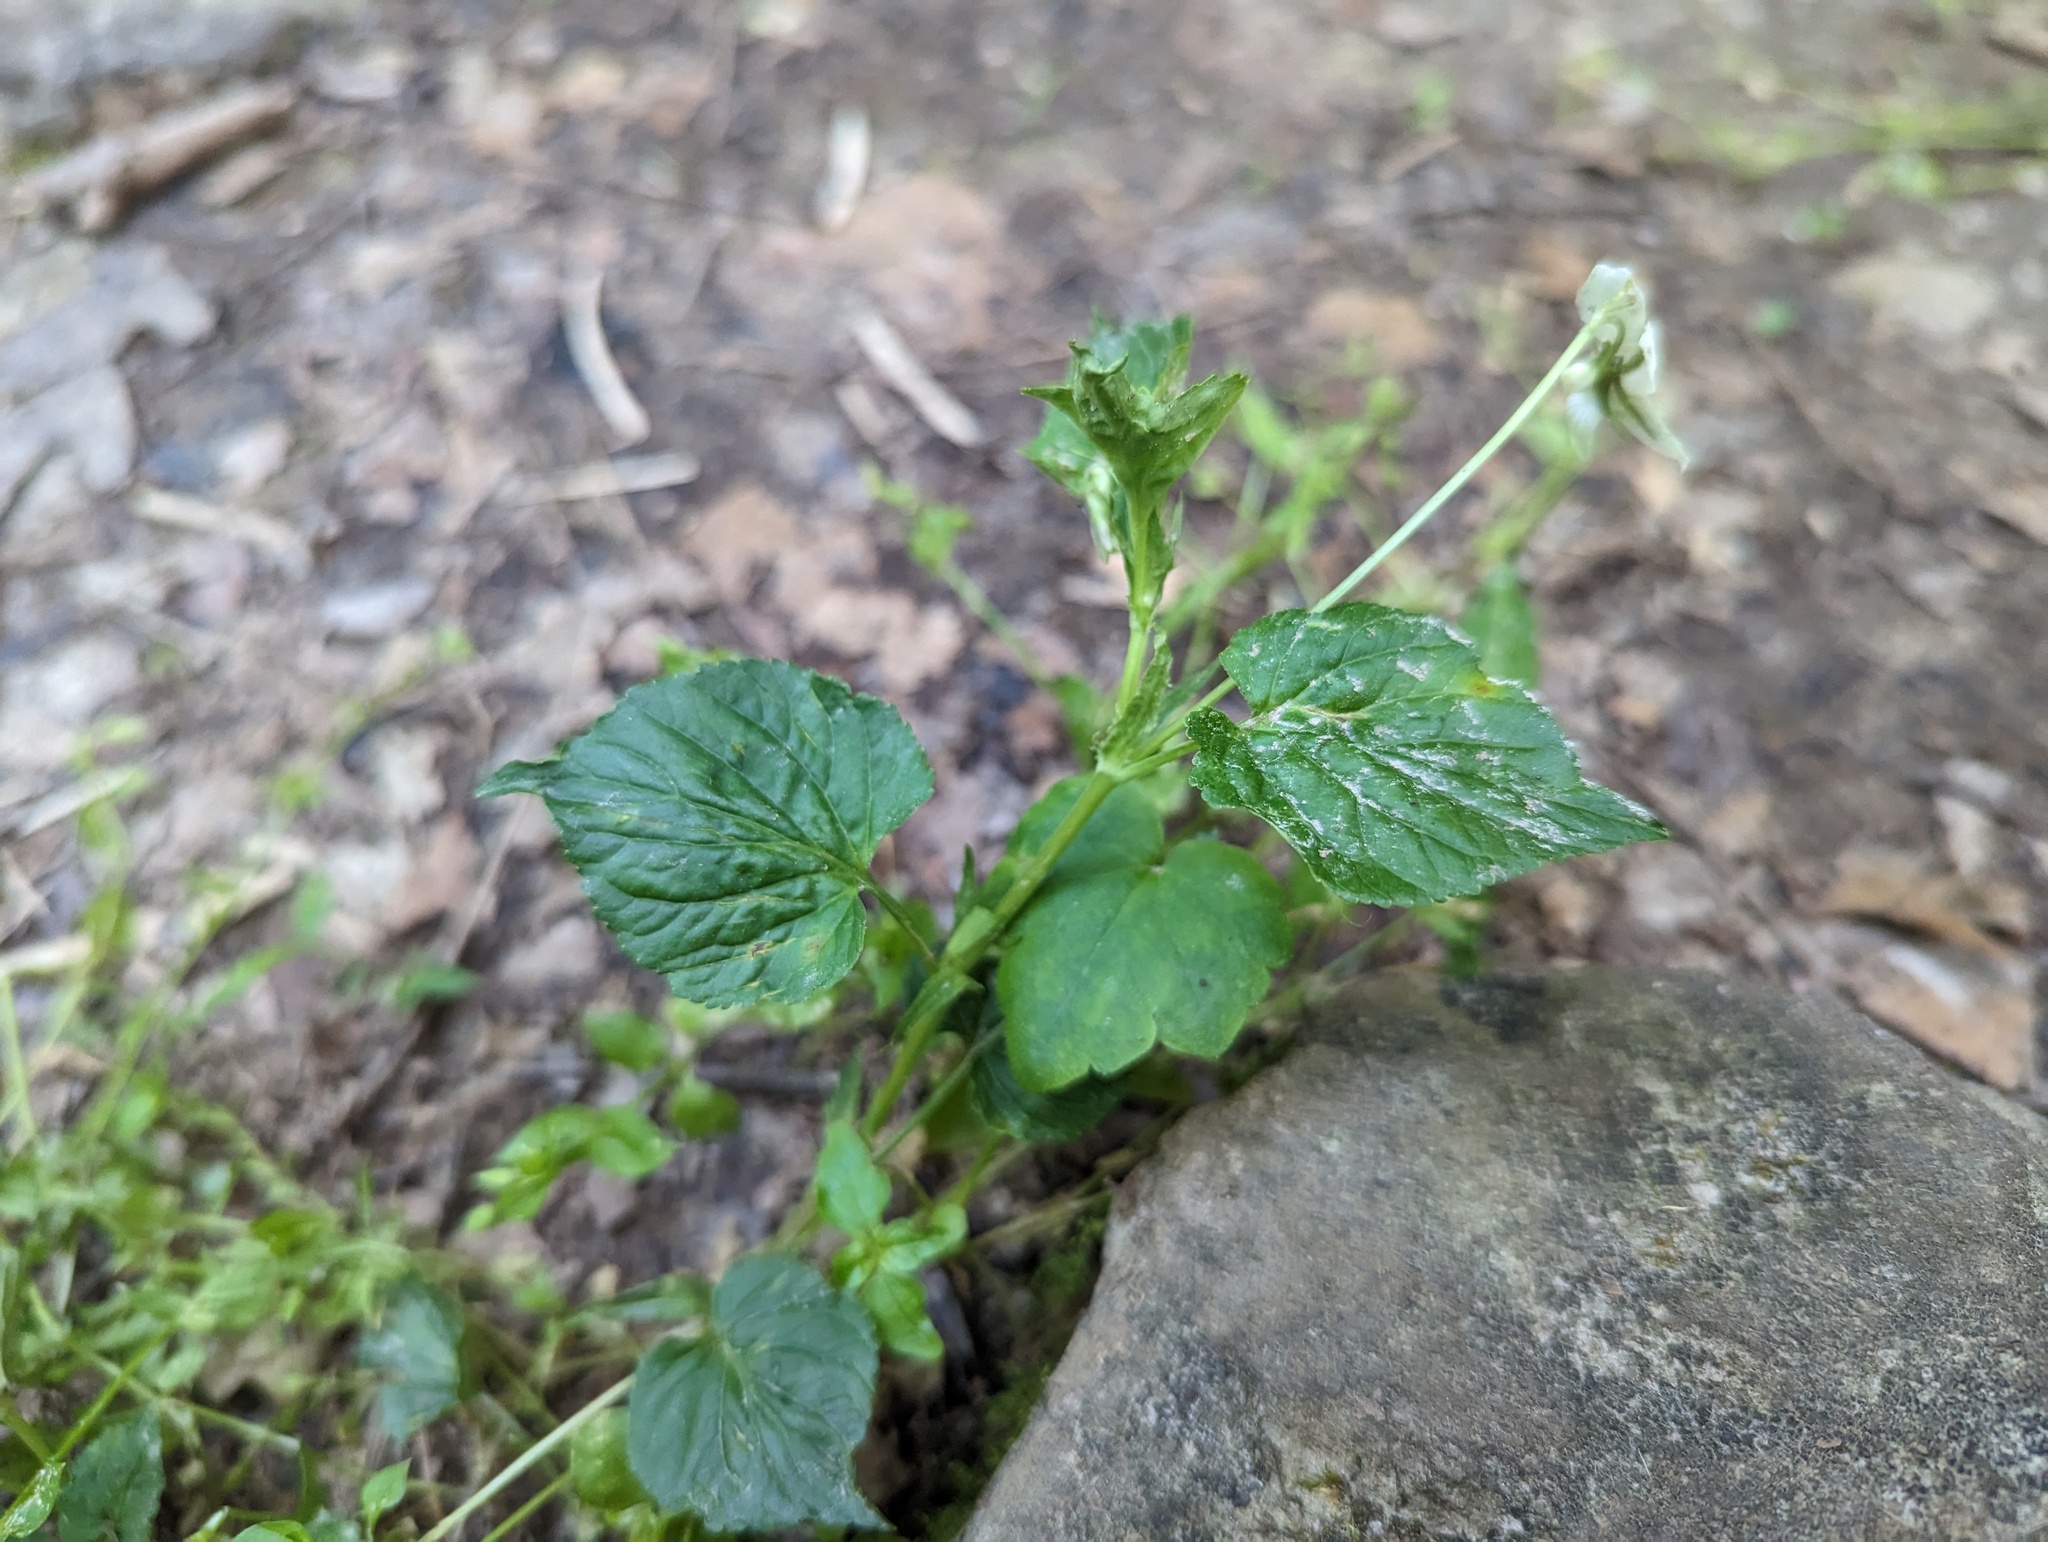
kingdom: Plantae
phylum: Tracheophyta
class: Magnoliopsida
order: Malpighiales
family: Violaceae
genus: Viola
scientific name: Viola striata
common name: Cream violet
